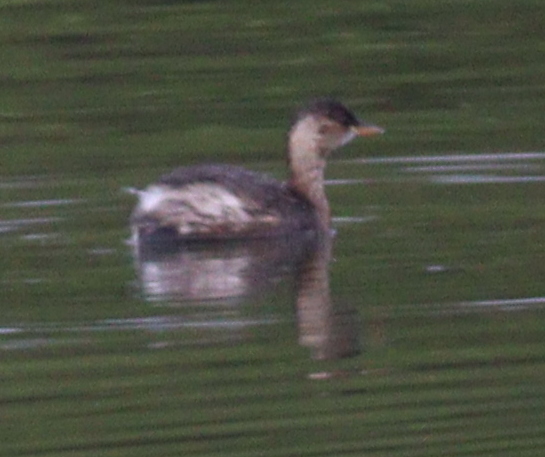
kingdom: Animalia
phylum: Chordata
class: Aves
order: Podicipediformes
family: Podicipedidae
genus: Tachybaptus
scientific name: Tachybaptus ruficollis
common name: Little grebe
